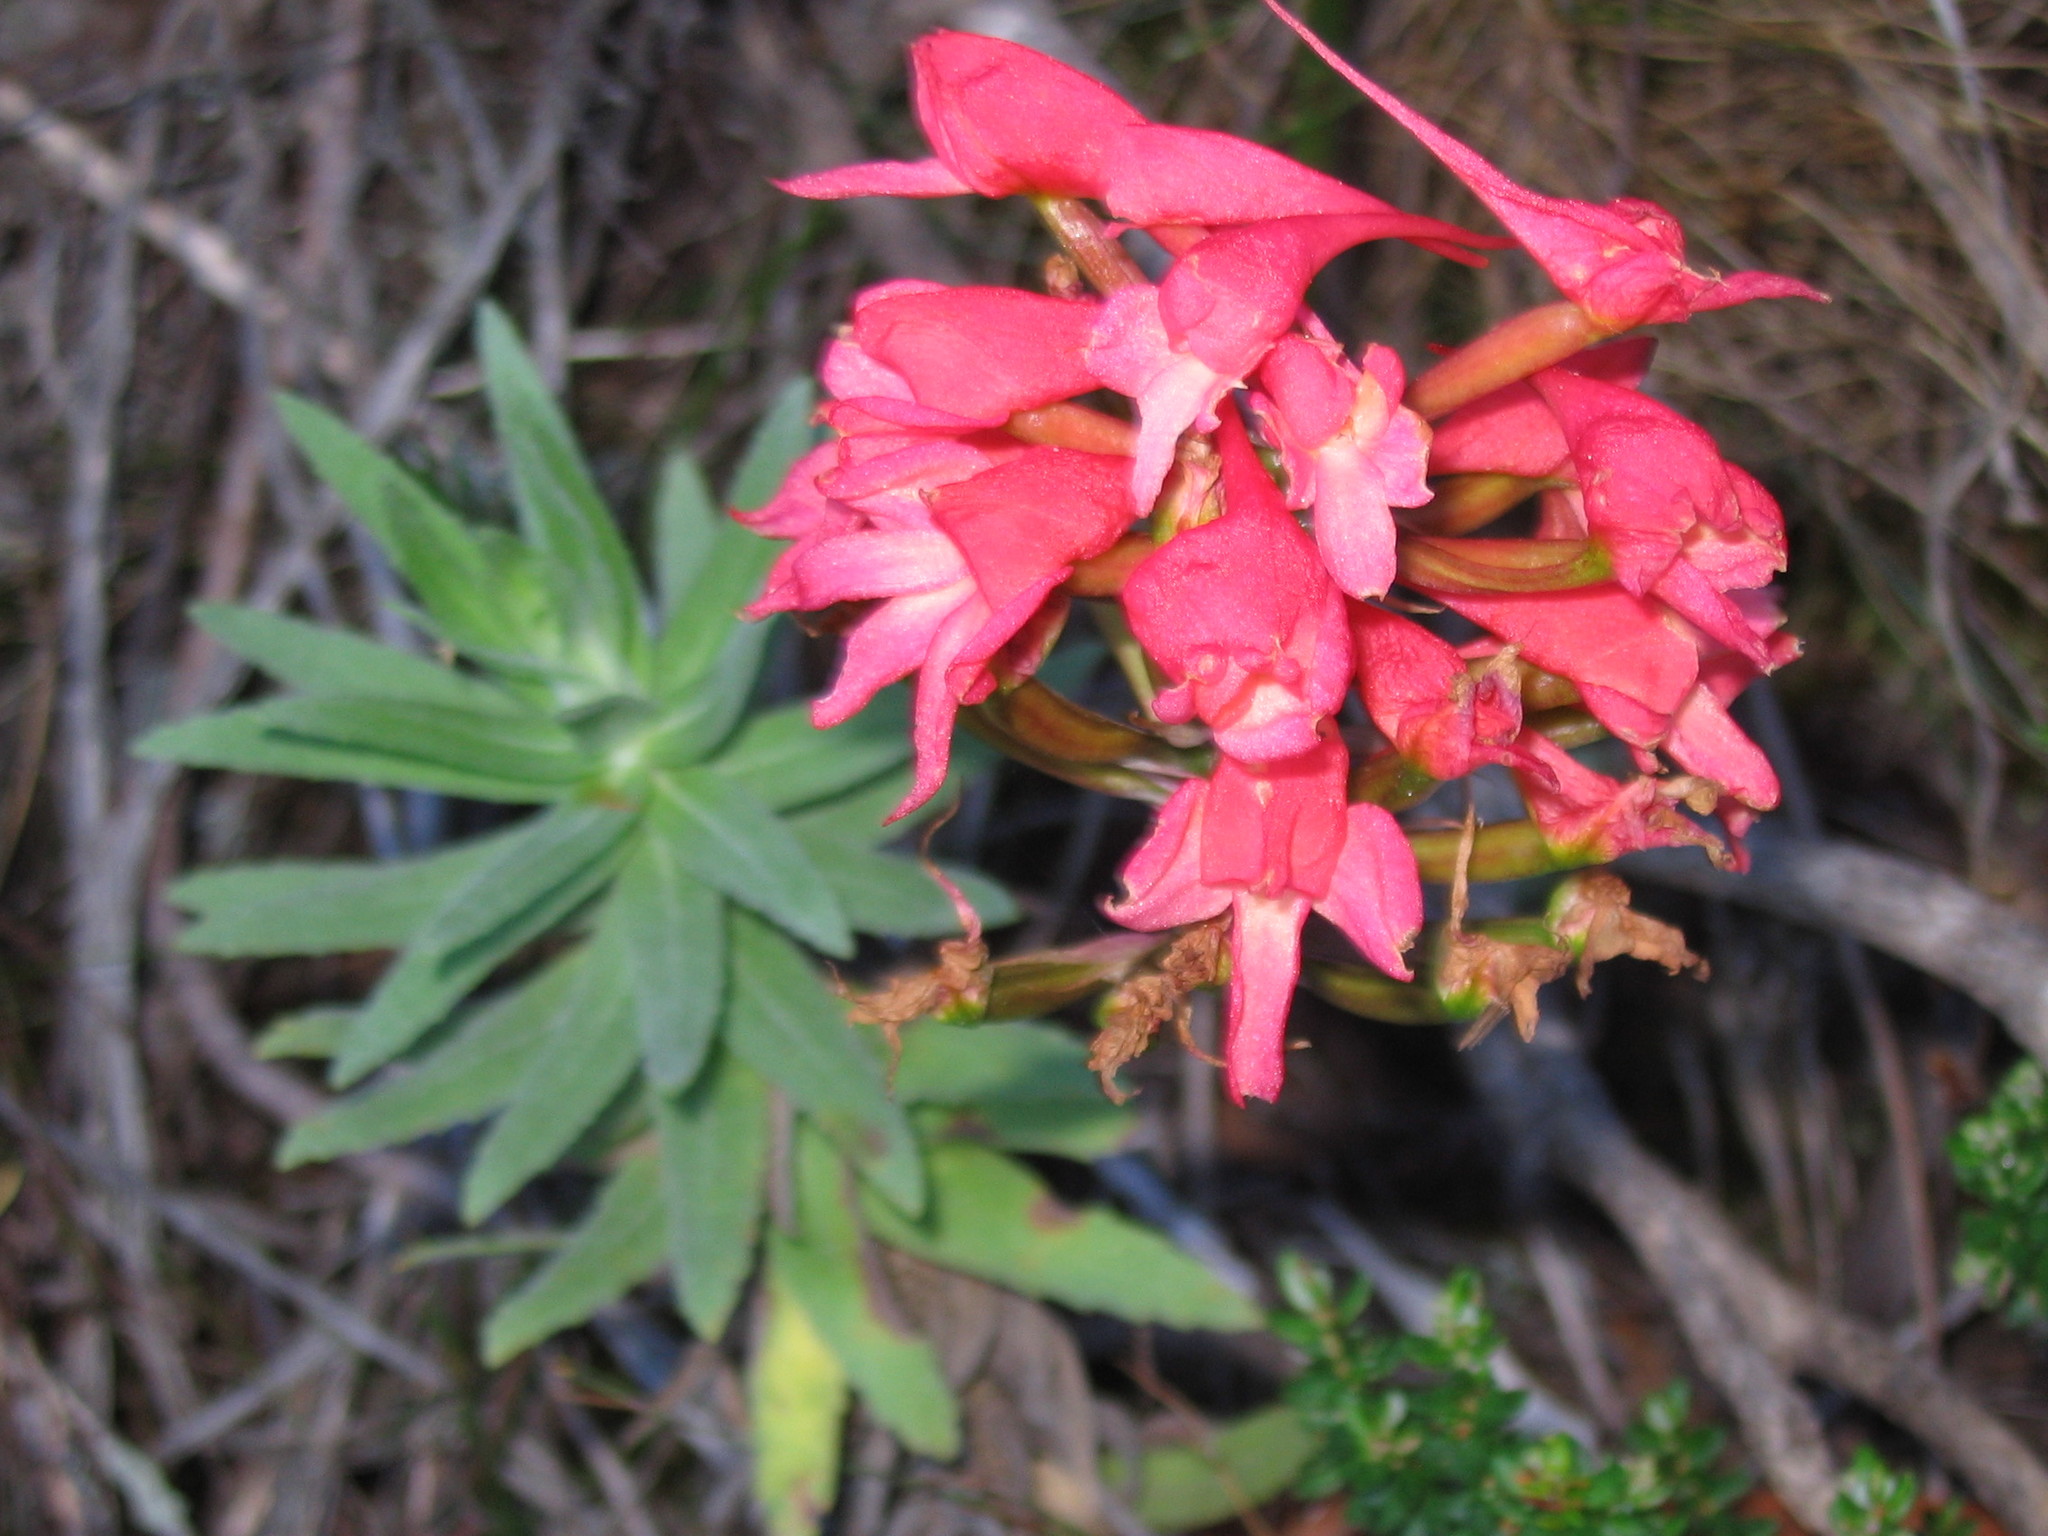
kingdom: Plantae
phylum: Tracheophyta
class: Liliopsida
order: Asparagales
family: Orchidaceae
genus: Disa
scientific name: Disa ferruginea
